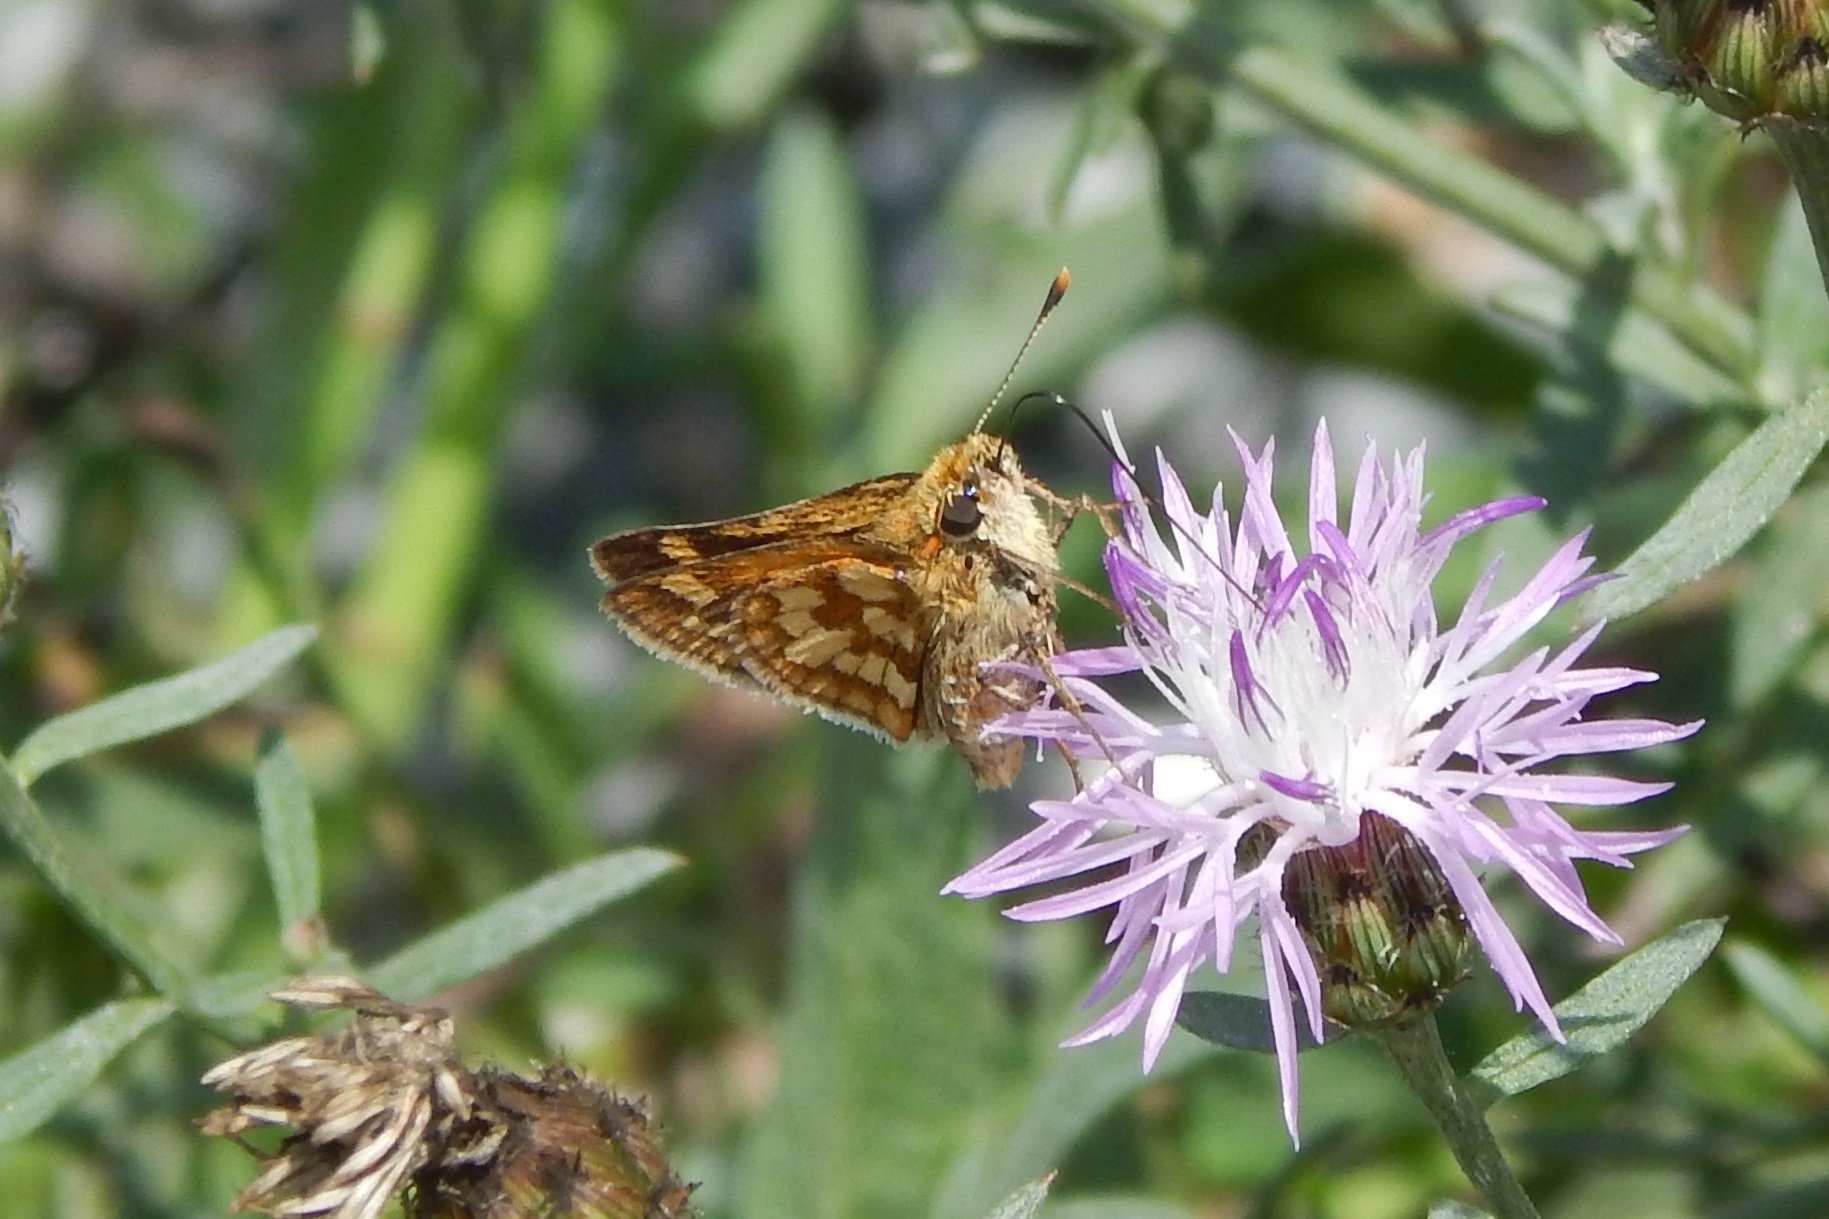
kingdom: Animalia
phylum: Arthropoda
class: Insecta
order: Lepidoptera
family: Hesperiidae
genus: Polites
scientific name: Polites coras
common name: Peck's skipper
